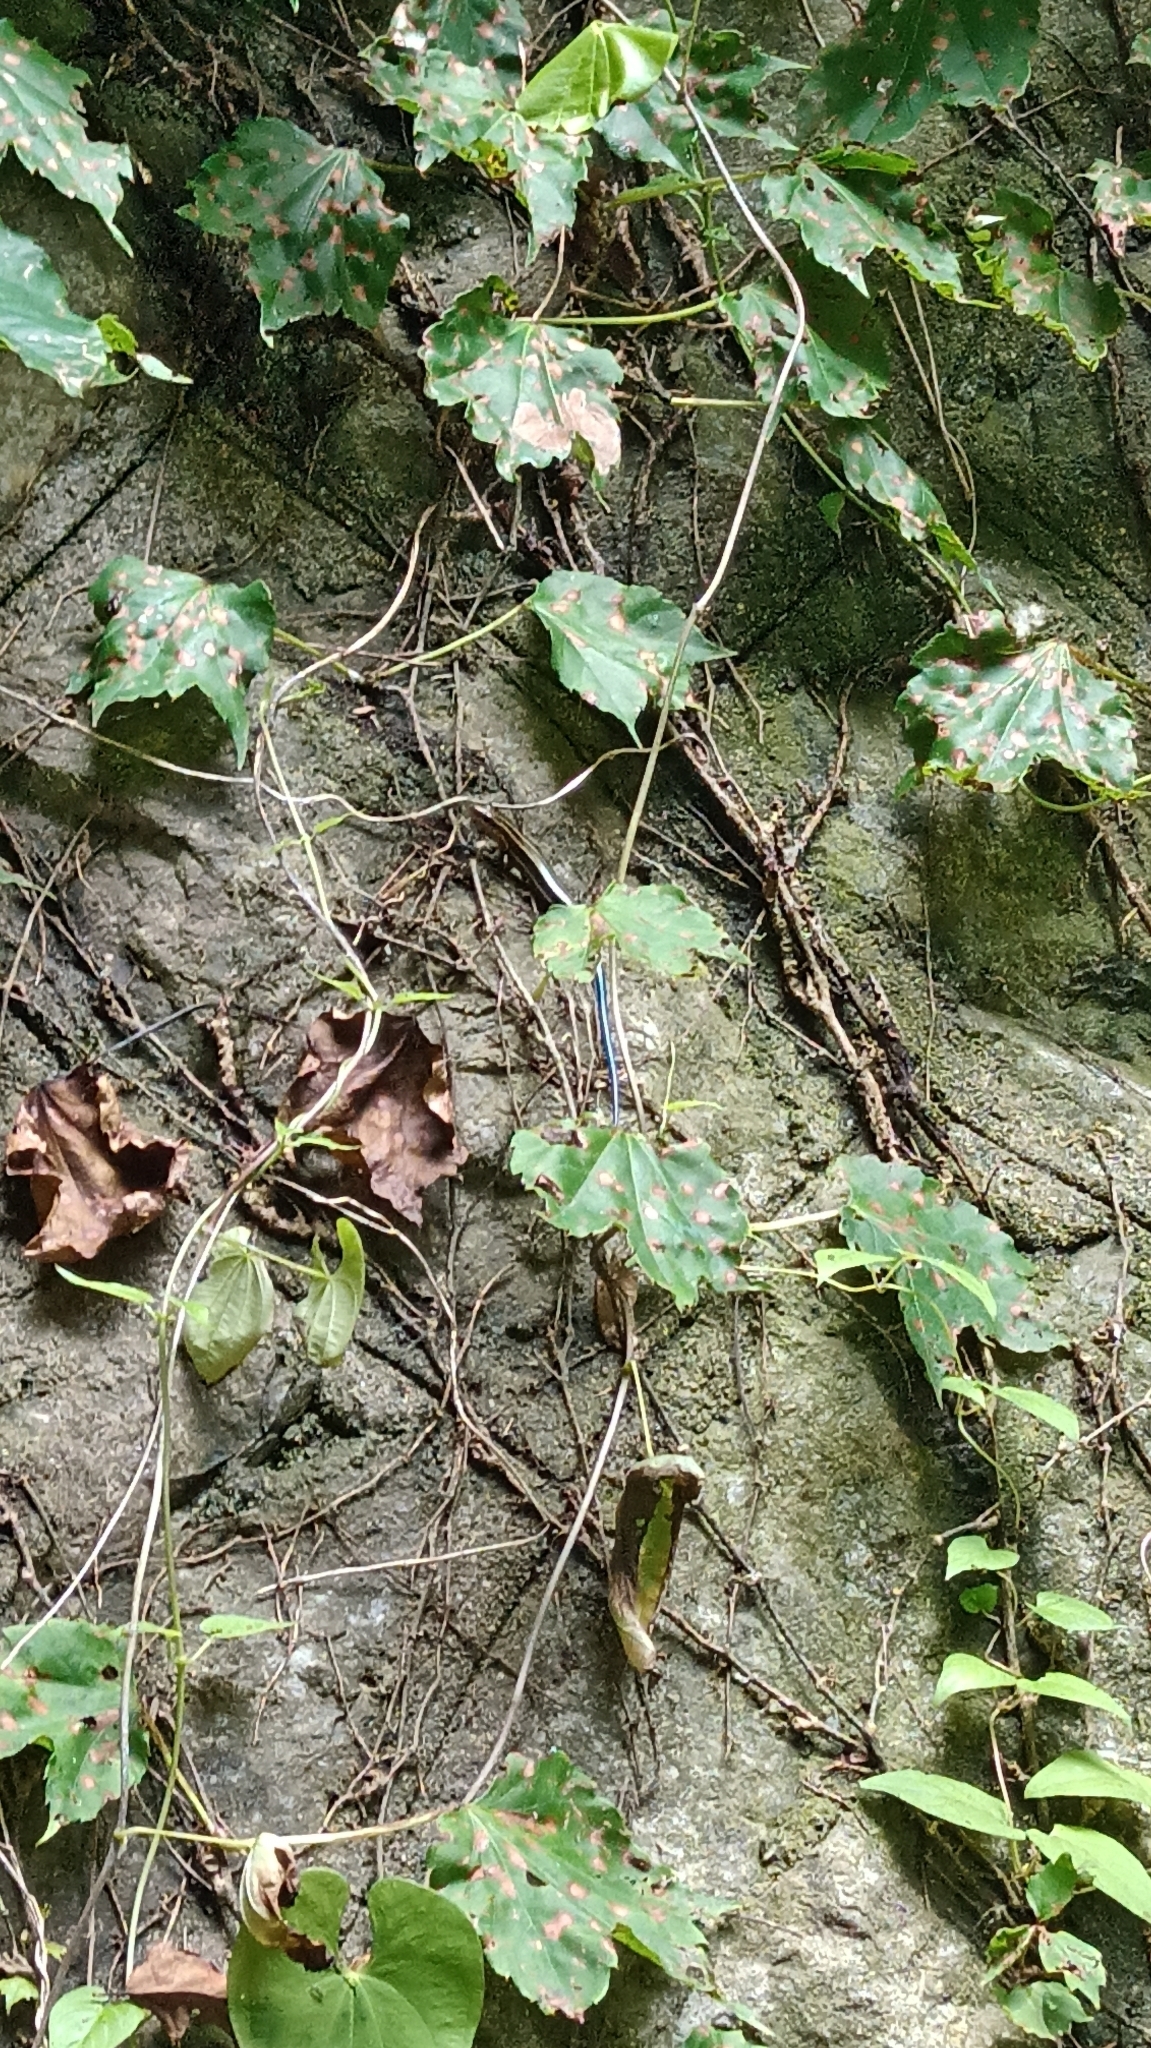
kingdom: Animalia
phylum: Chordata
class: Squamata
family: Scincidae
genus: Plestiodon
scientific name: Plestiodon finitimus
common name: Far eastern skink
